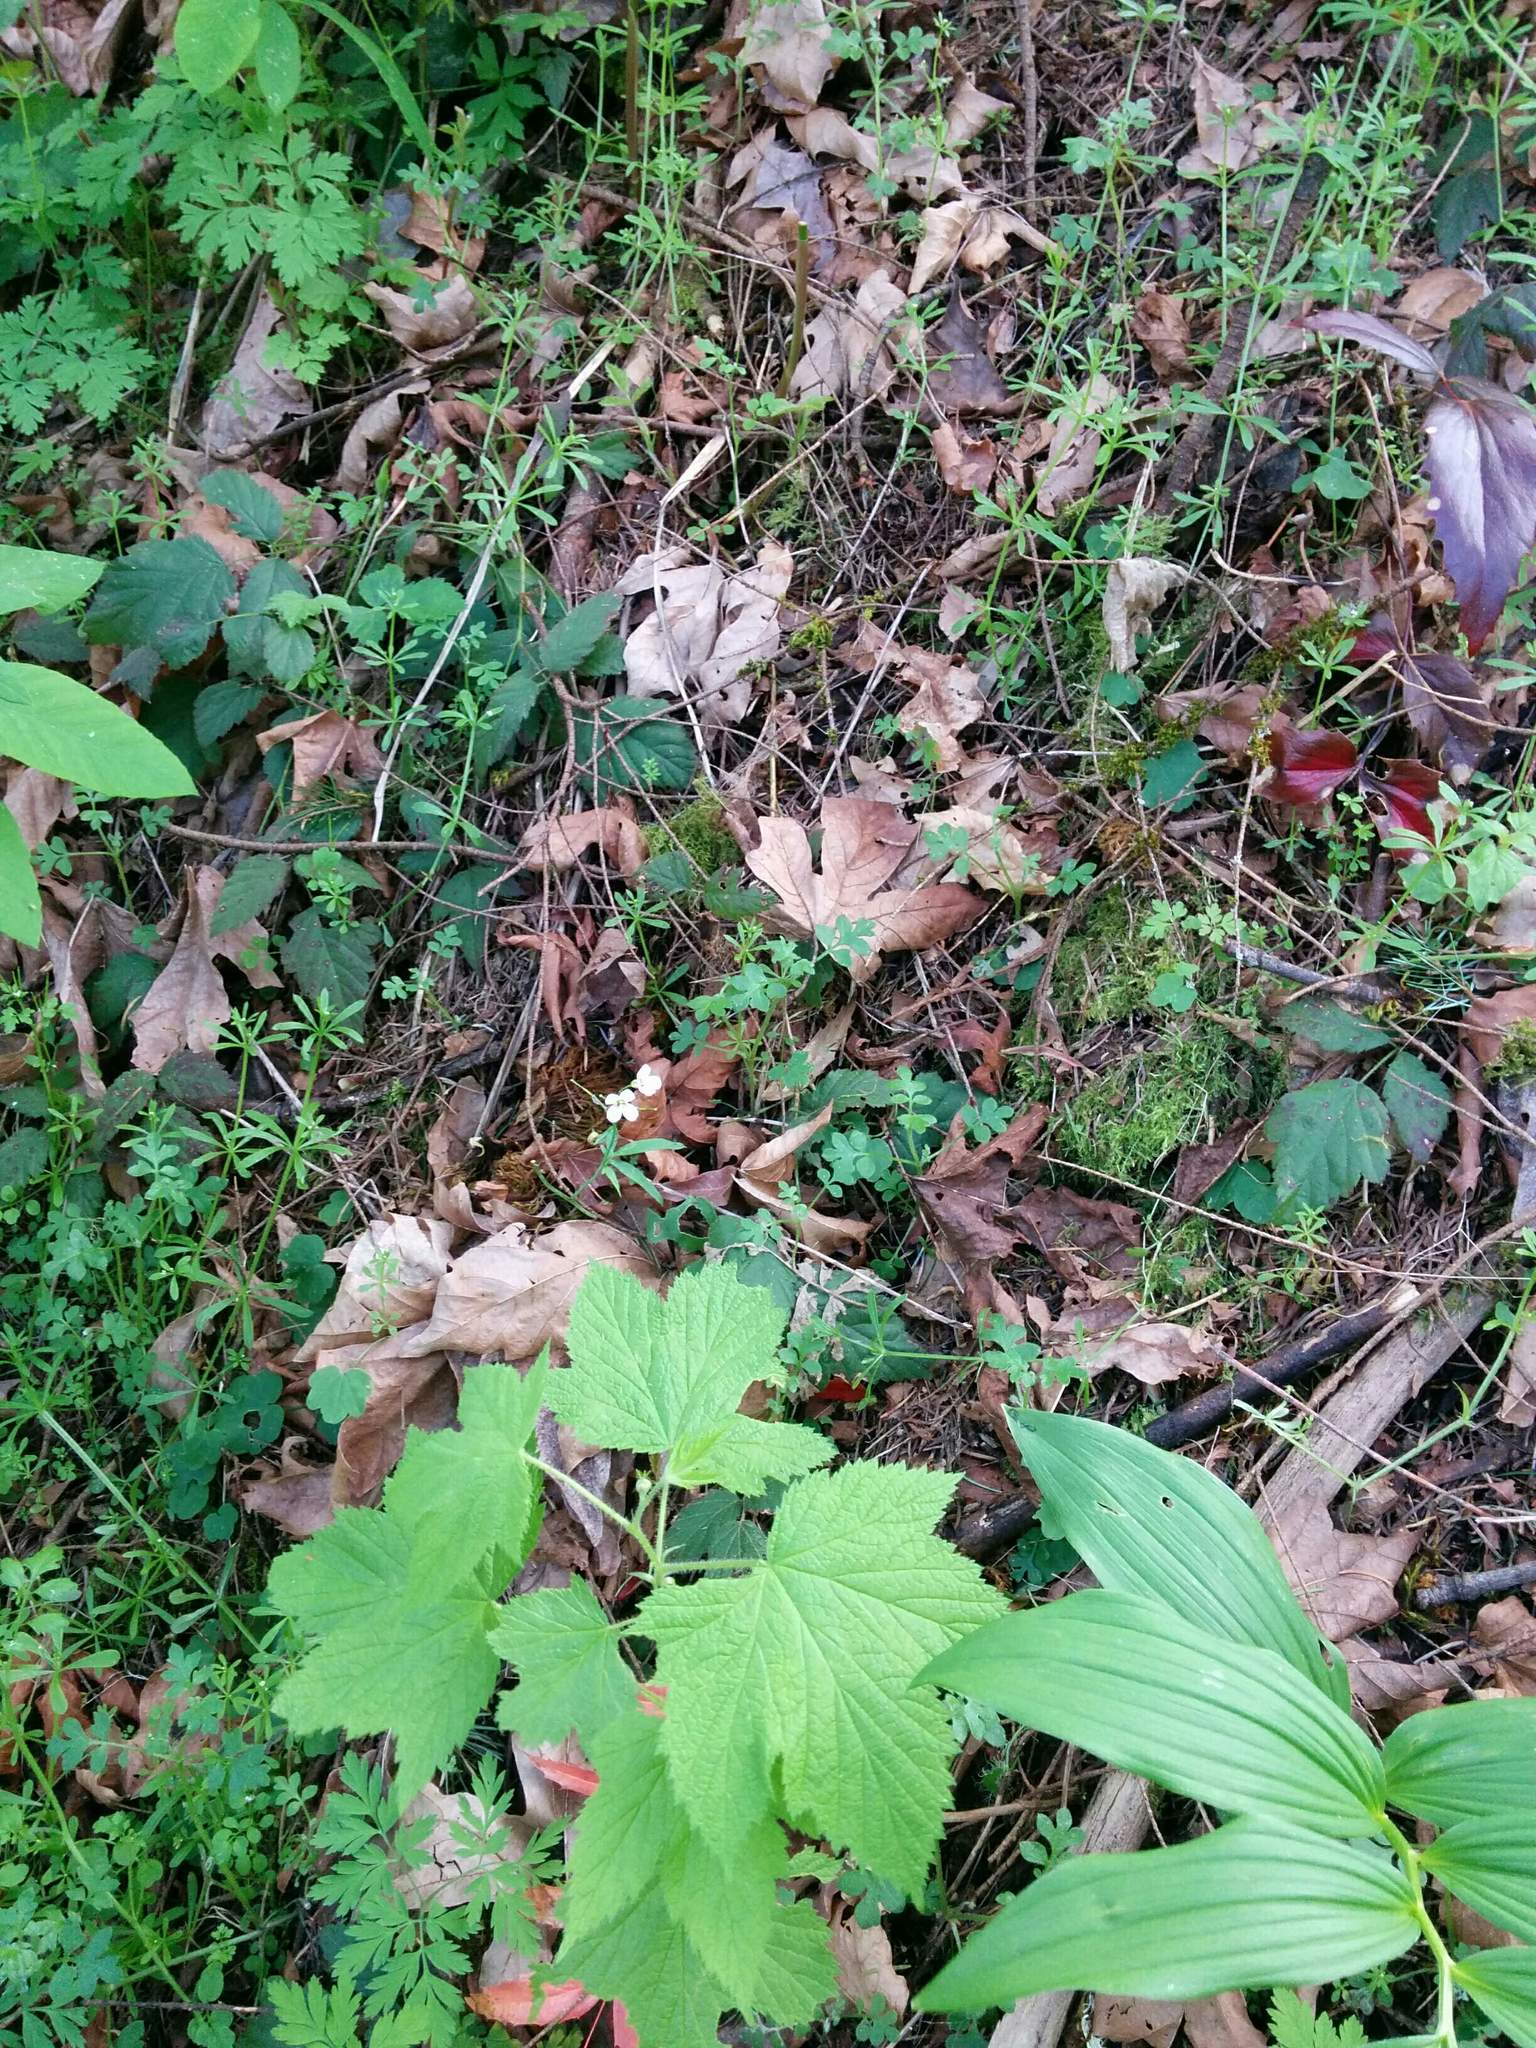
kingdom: Plantae
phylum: Tracheophyta
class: Magnoliopsida
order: Brassicales
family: Brassicaceae
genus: Cardamine
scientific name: Cardamine nuttallii
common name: Nuttall's toothwort
